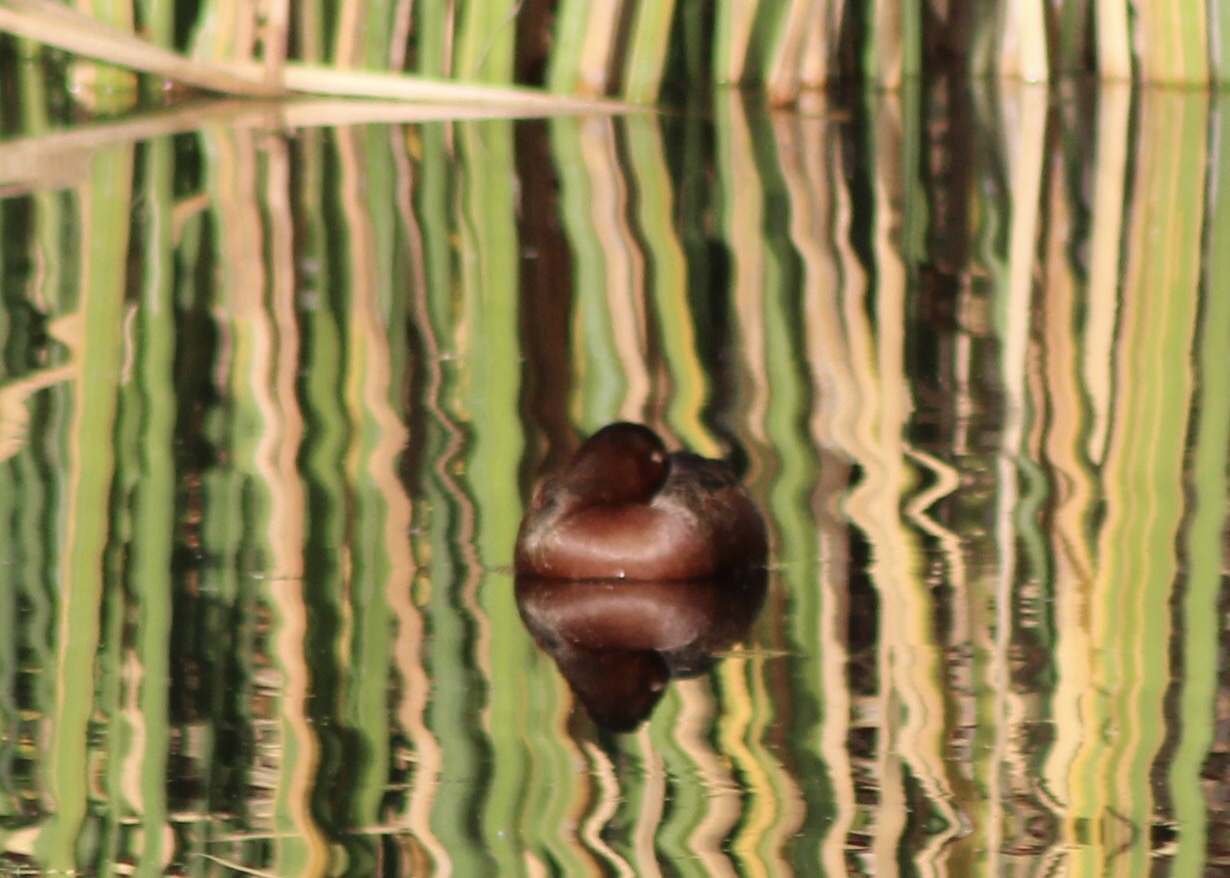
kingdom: Animalia
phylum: Chordata
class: Aves
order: Anseriformes
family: Anatidae
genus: Spatula
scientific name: Spatula cyanoptera
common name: Cinnamon teal
